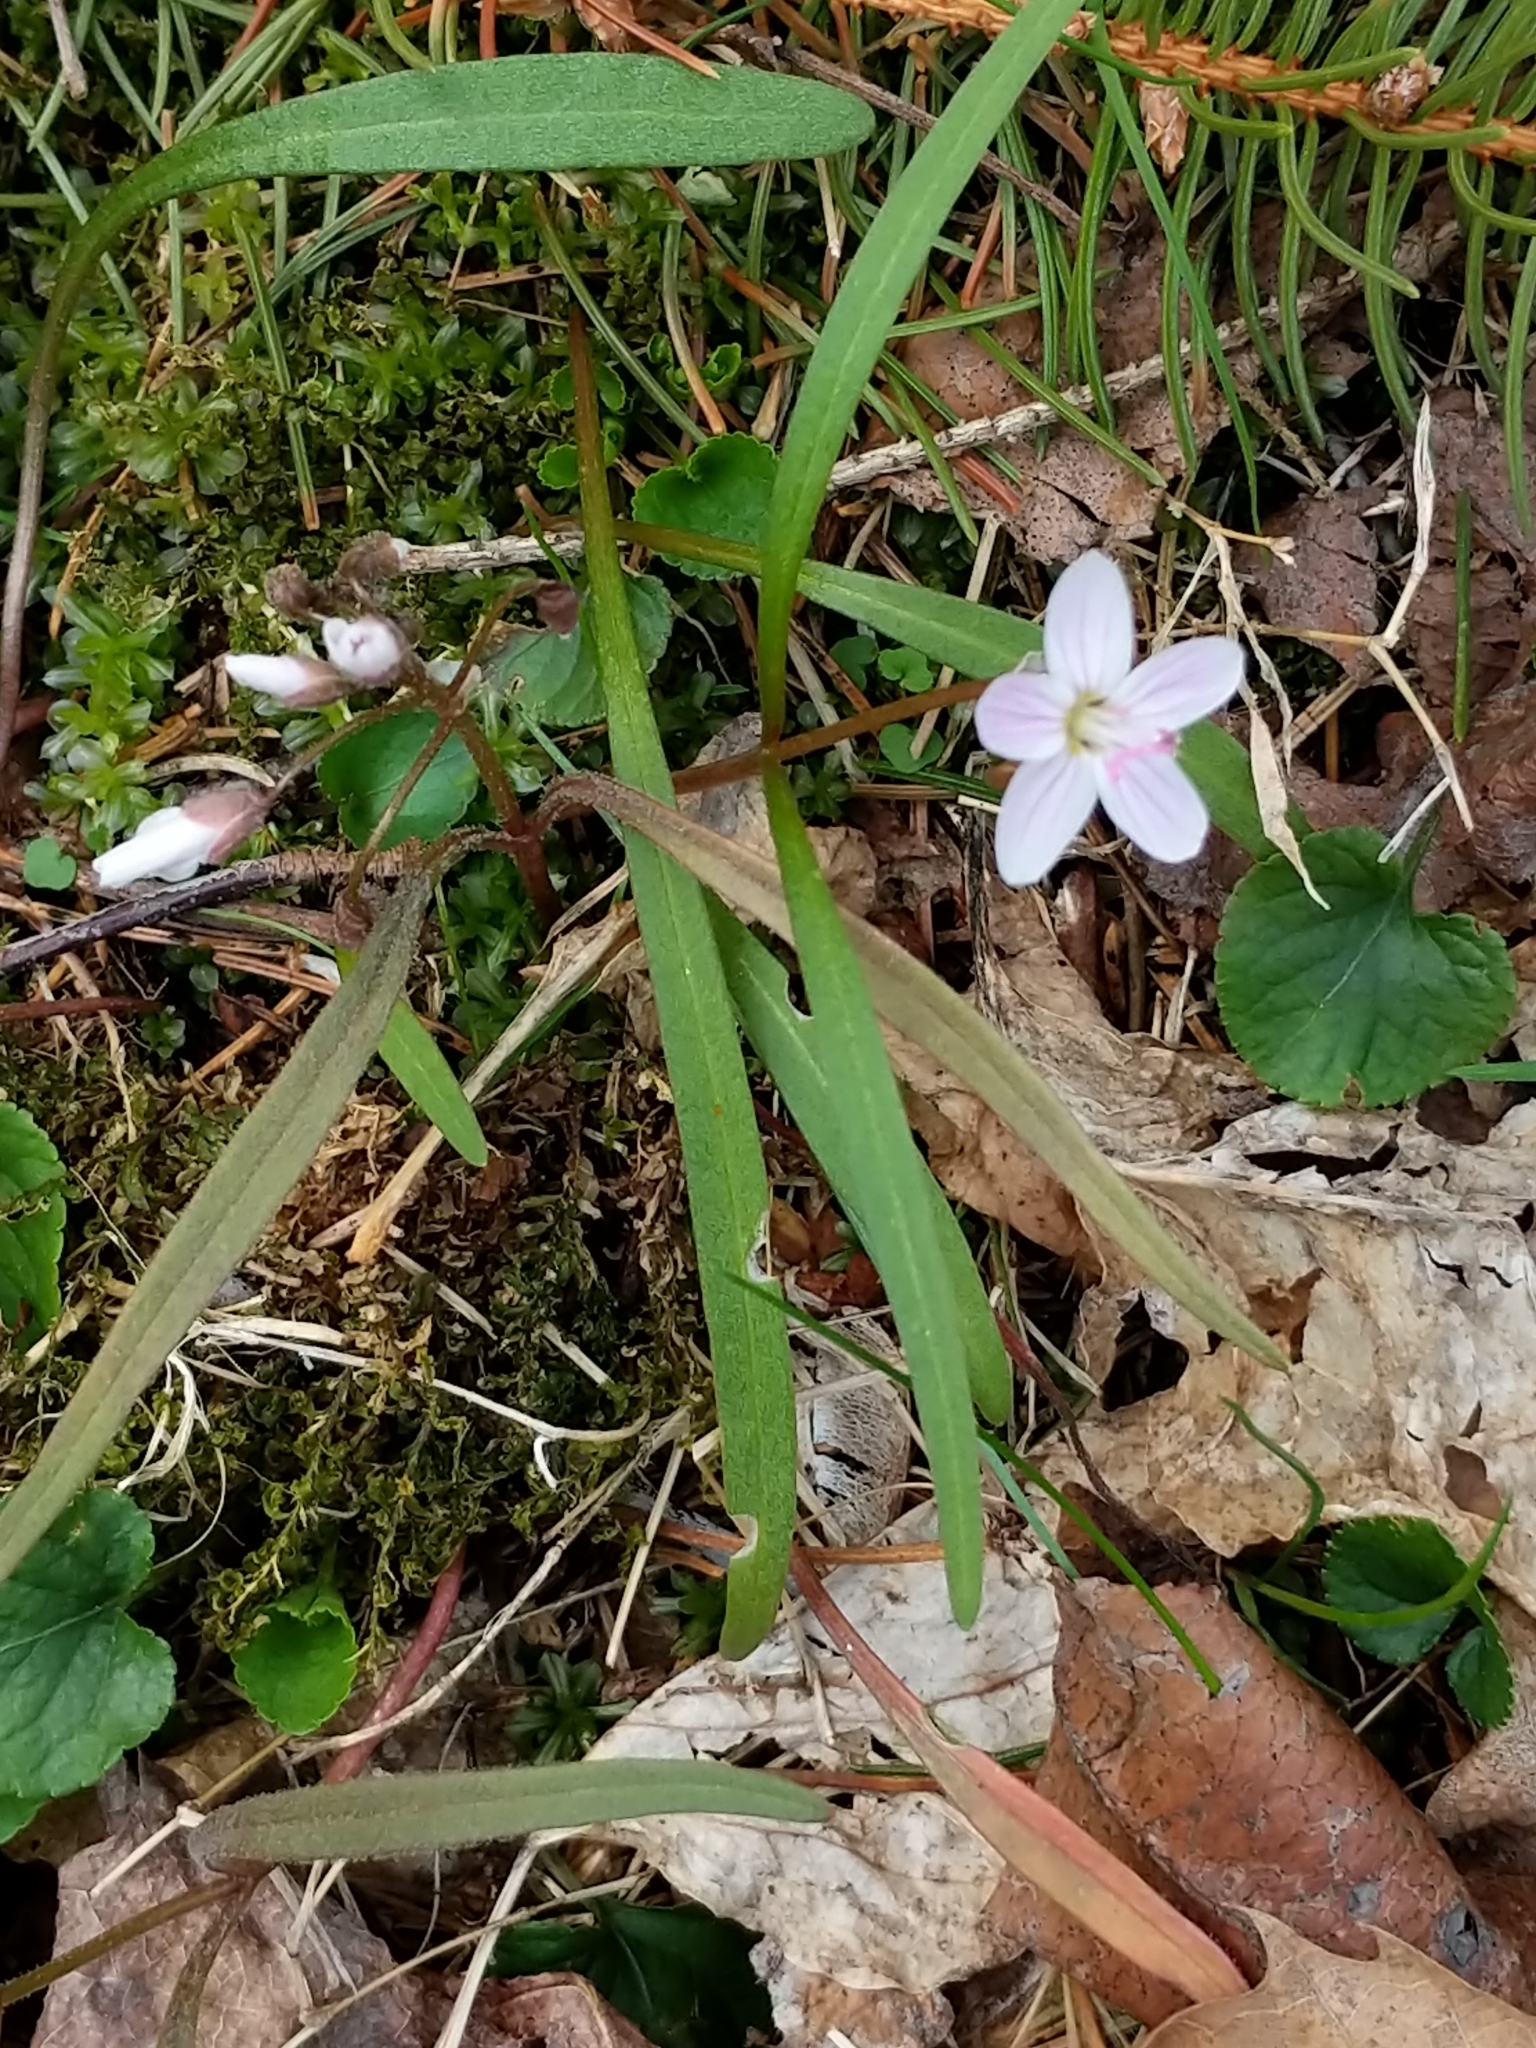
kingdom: Plantae
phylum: Tracheophyta
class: Magnoliopsida
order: Caryophyllales
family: Montiaceae
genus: Claytonia
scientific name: Claytonia virginica
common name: Virginia springbeauty
